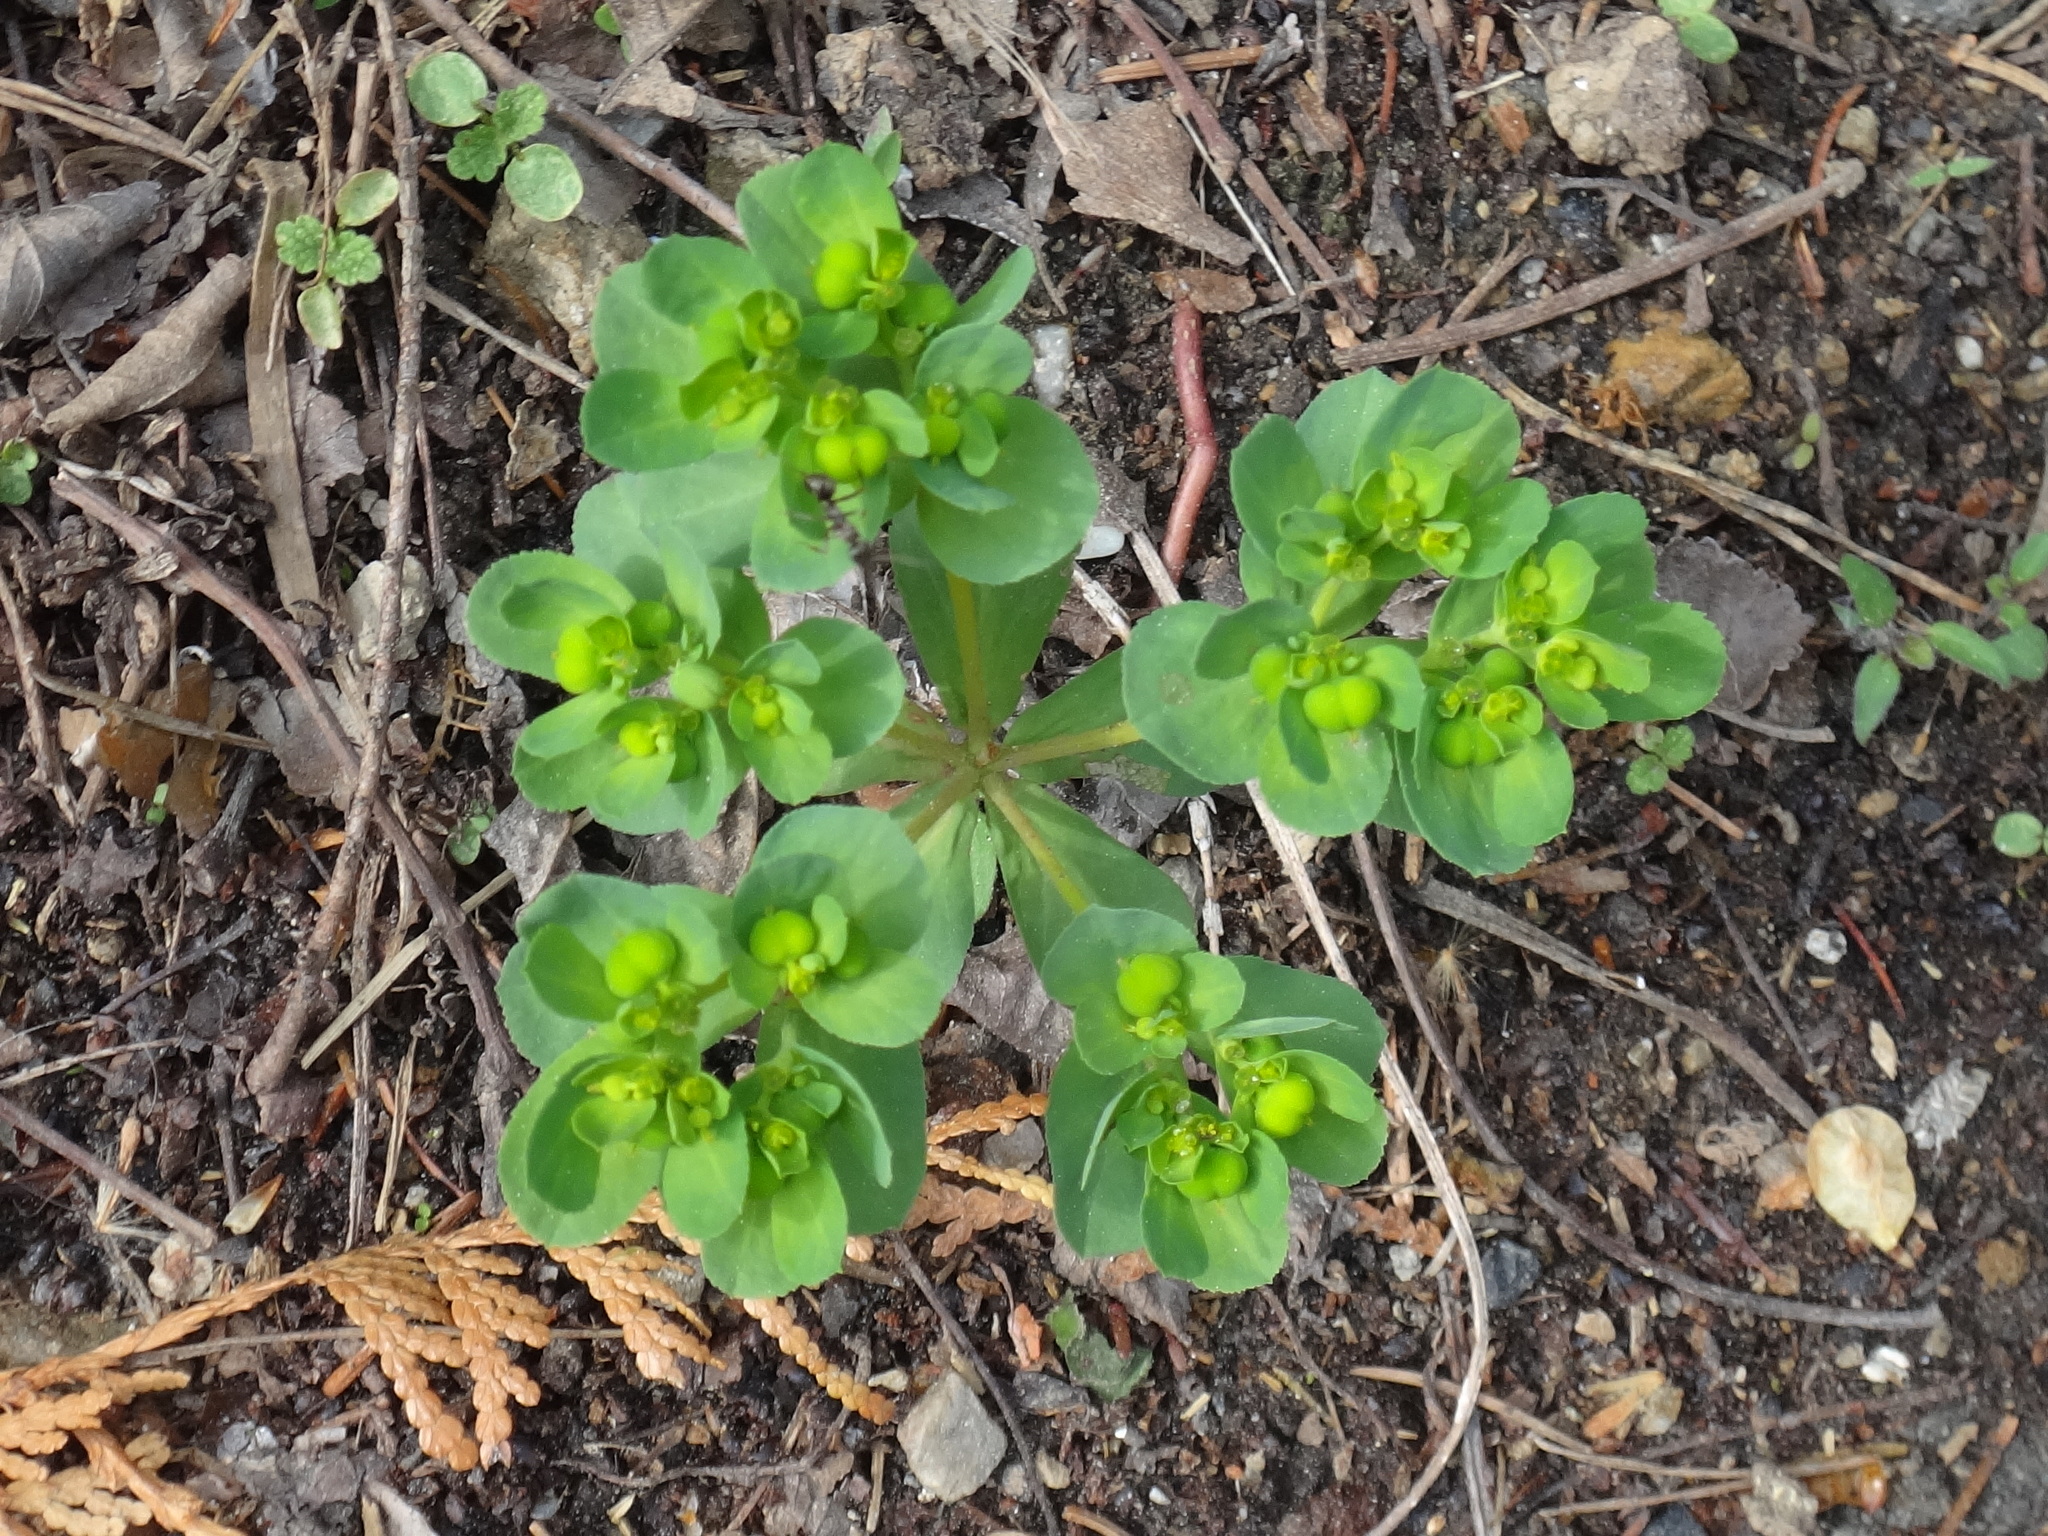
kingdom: Plantae
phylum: Tracheophyta
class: Magnoliopsida
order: Malpighiales
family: Euphorbiaceae
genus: Euphorbia
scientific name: Euphorbia helioscopia
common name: Sun spurge
